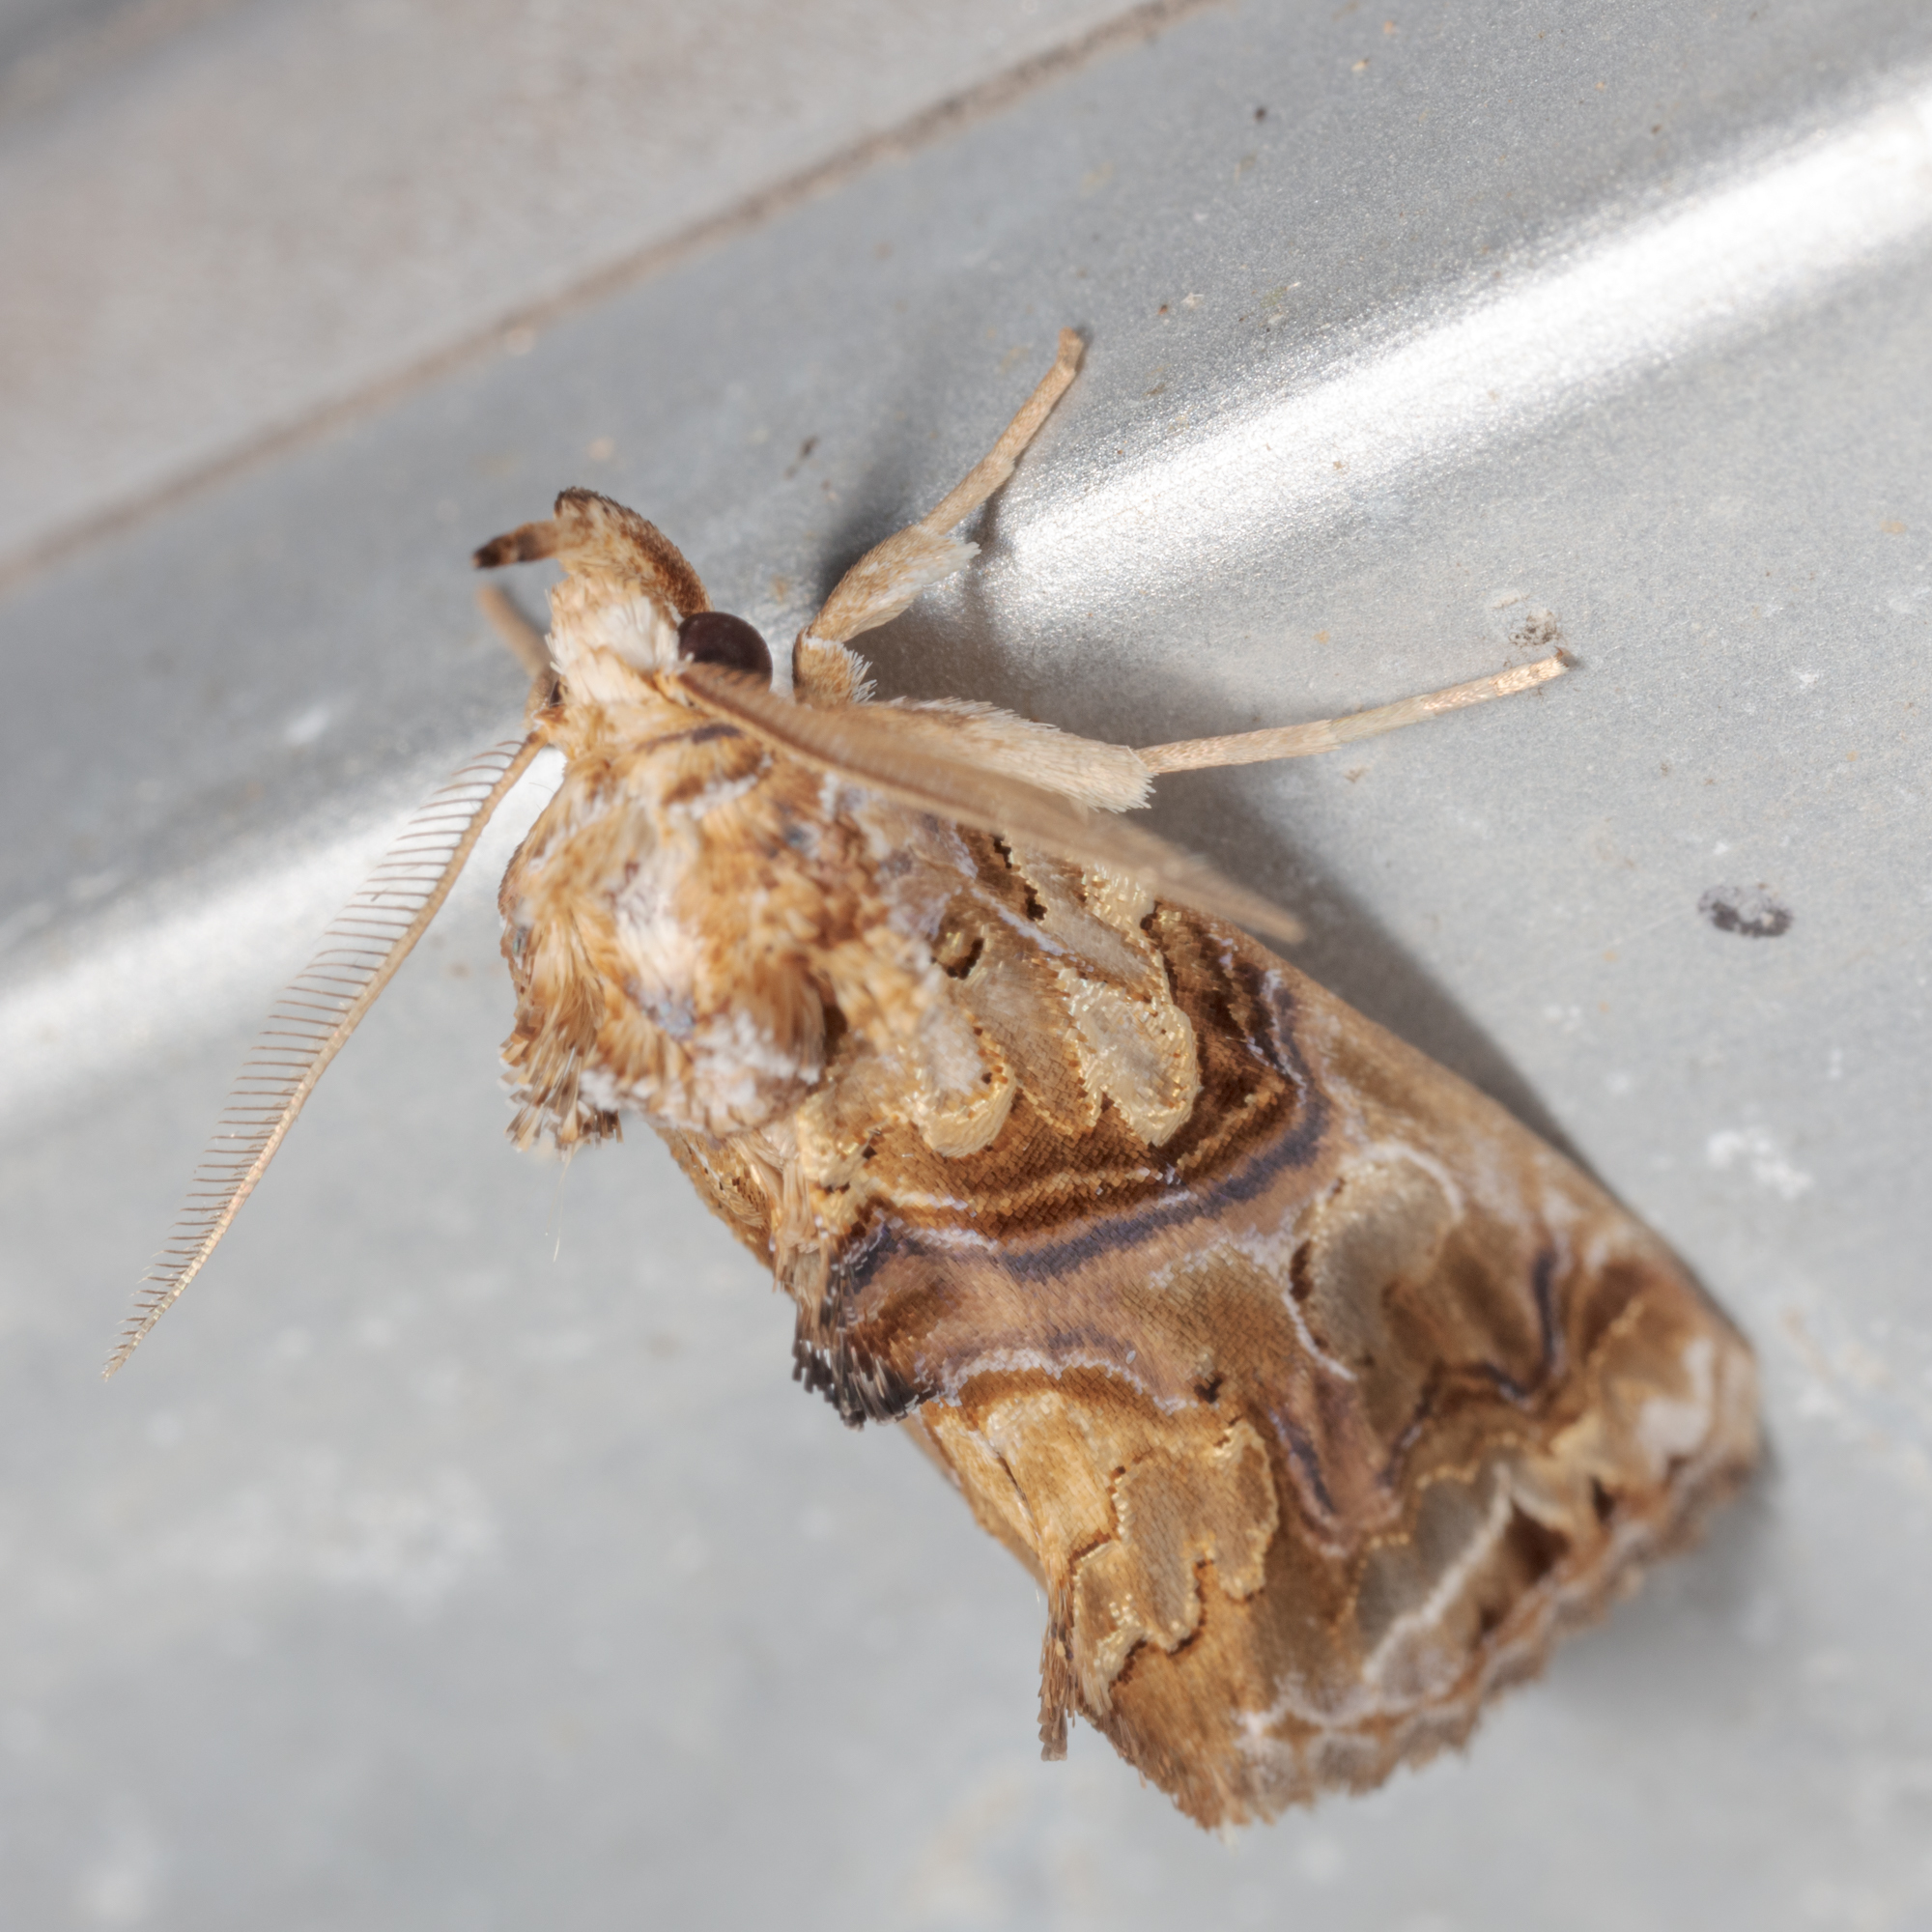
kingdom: Animalia
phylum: Arthropoda
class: Insecta
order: Lepidoptera
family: Erebidae
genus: Plusiodonta
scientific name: Plusiodonta compressipalpis
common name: Moonseed moth
